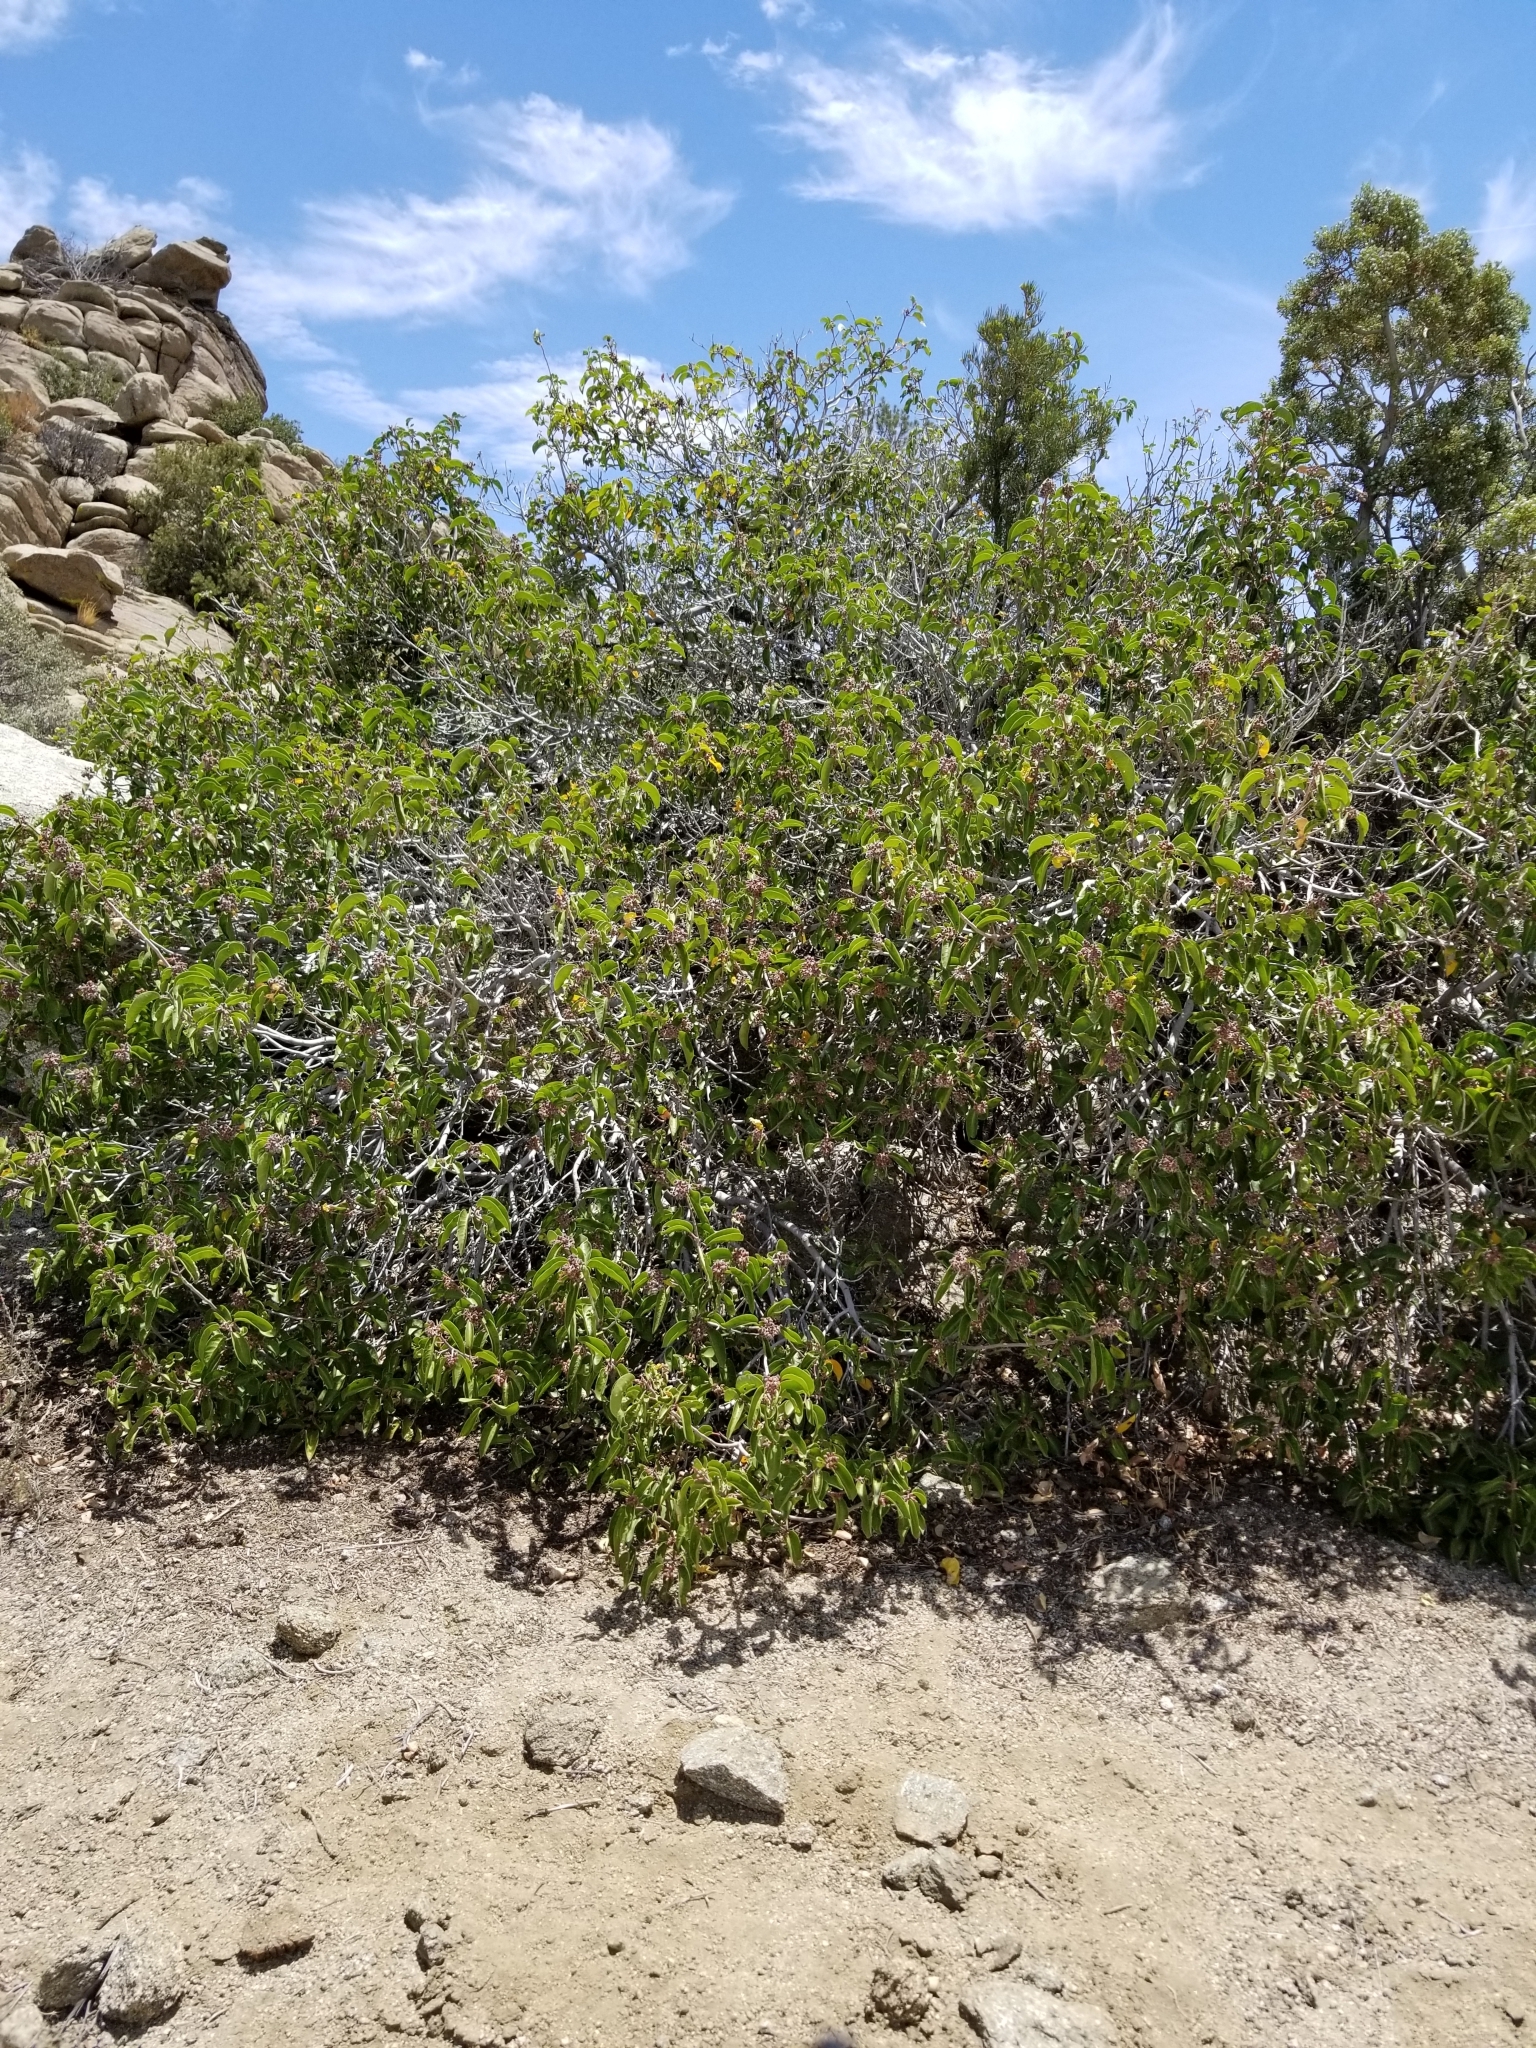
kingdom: Plantae
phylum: Tracheophyta
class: Magnoliopsida
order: Sapindales
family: Anacardiaceae
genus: Rhus
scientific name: Rhus ovata
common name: Sugar sumac
